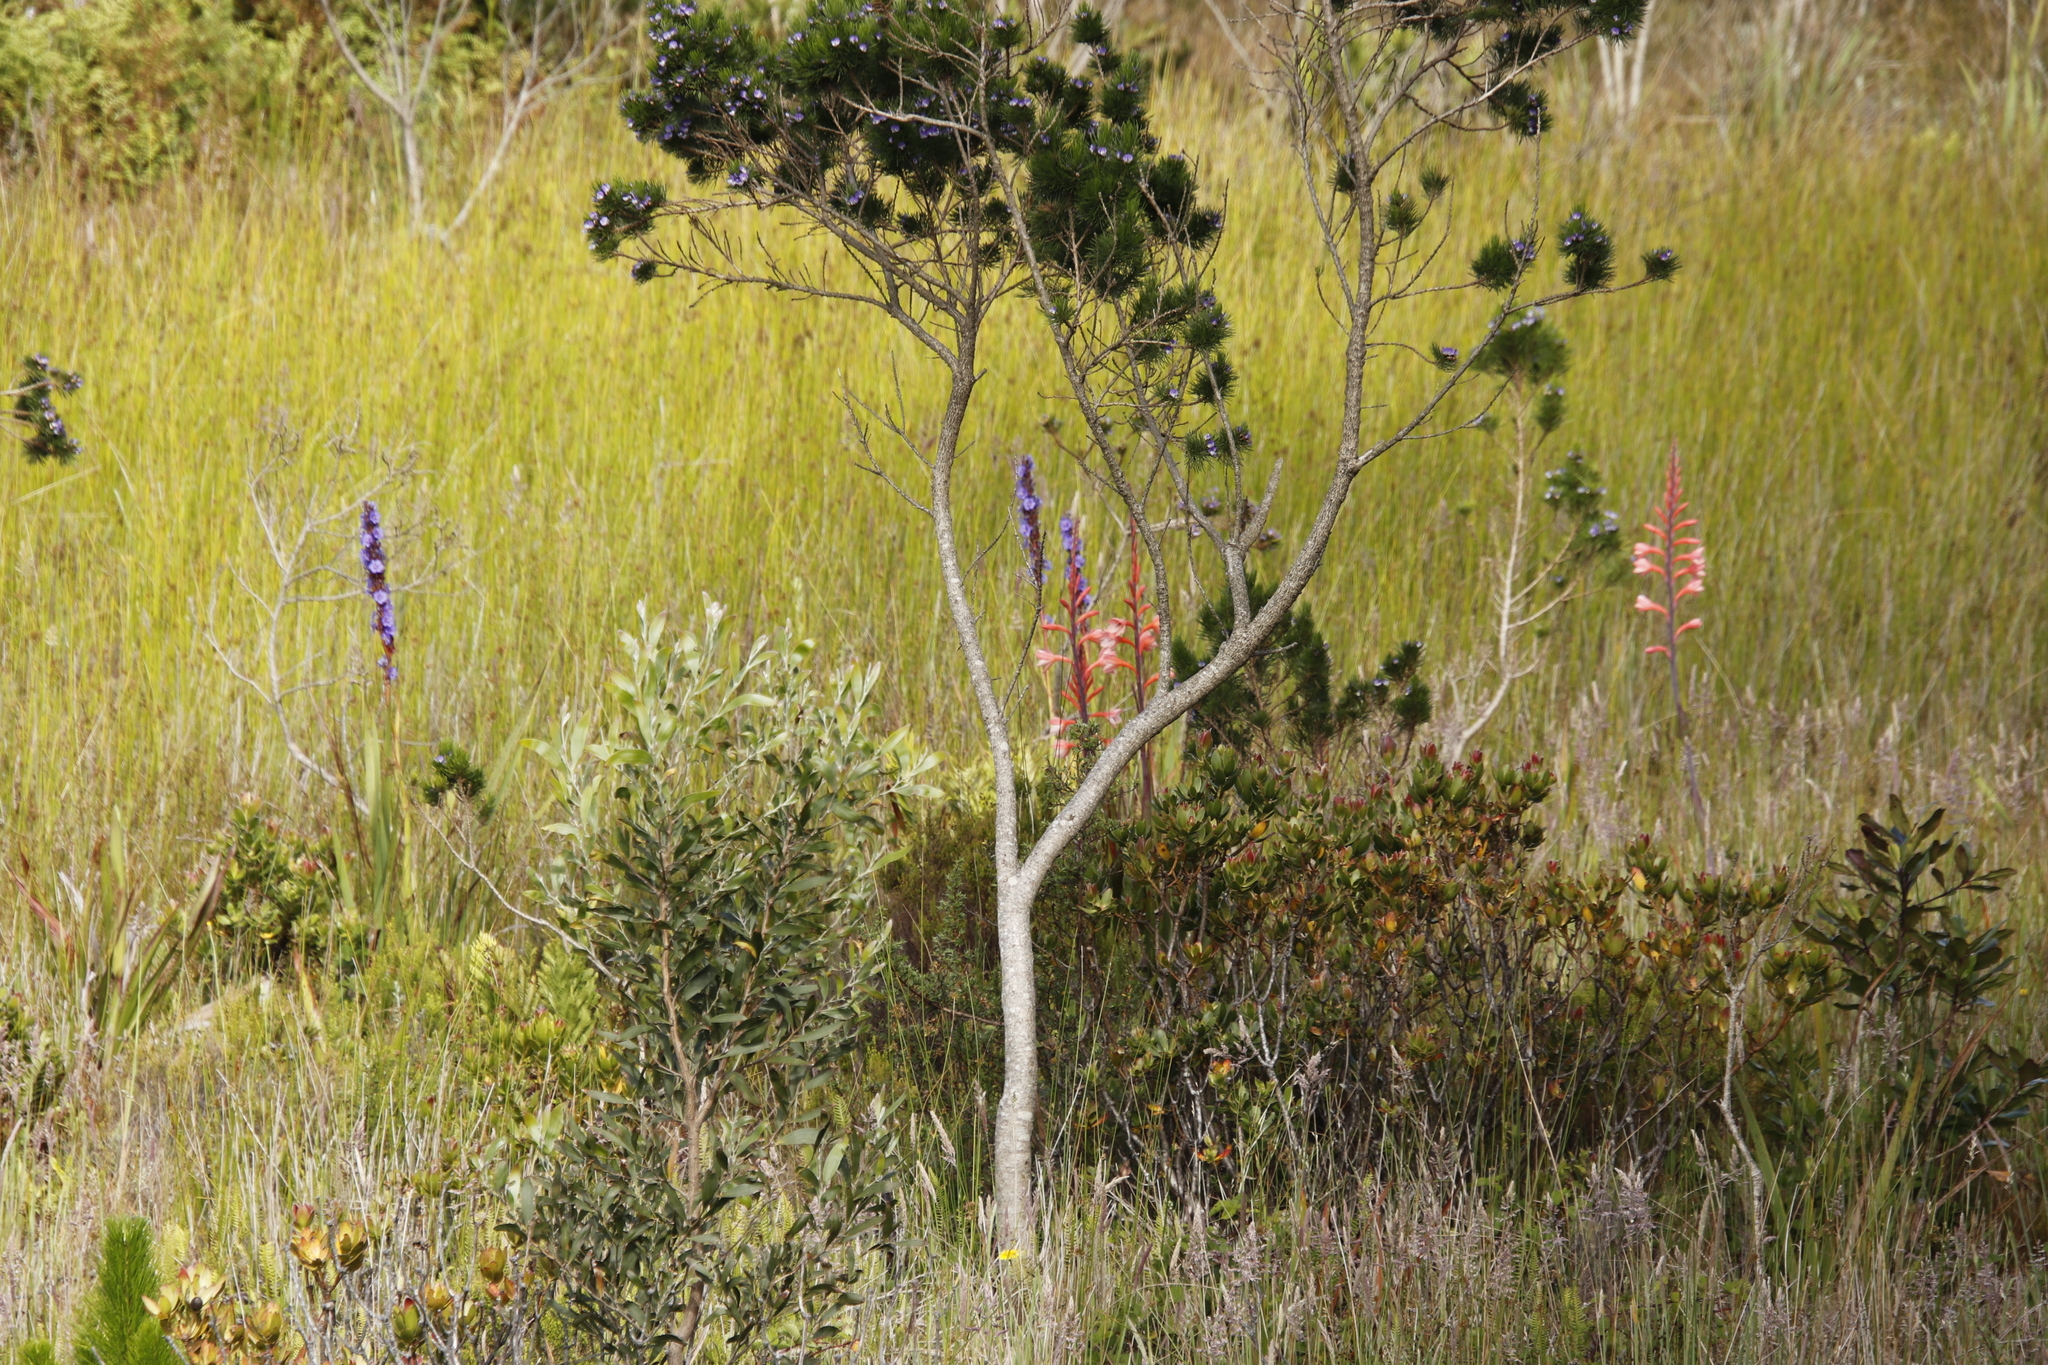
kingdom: Plantae
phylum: Tracheophyta
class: Liliopsida
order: Asparagales
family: Iridaceae
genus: Aristea
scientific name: Aristea capitata
